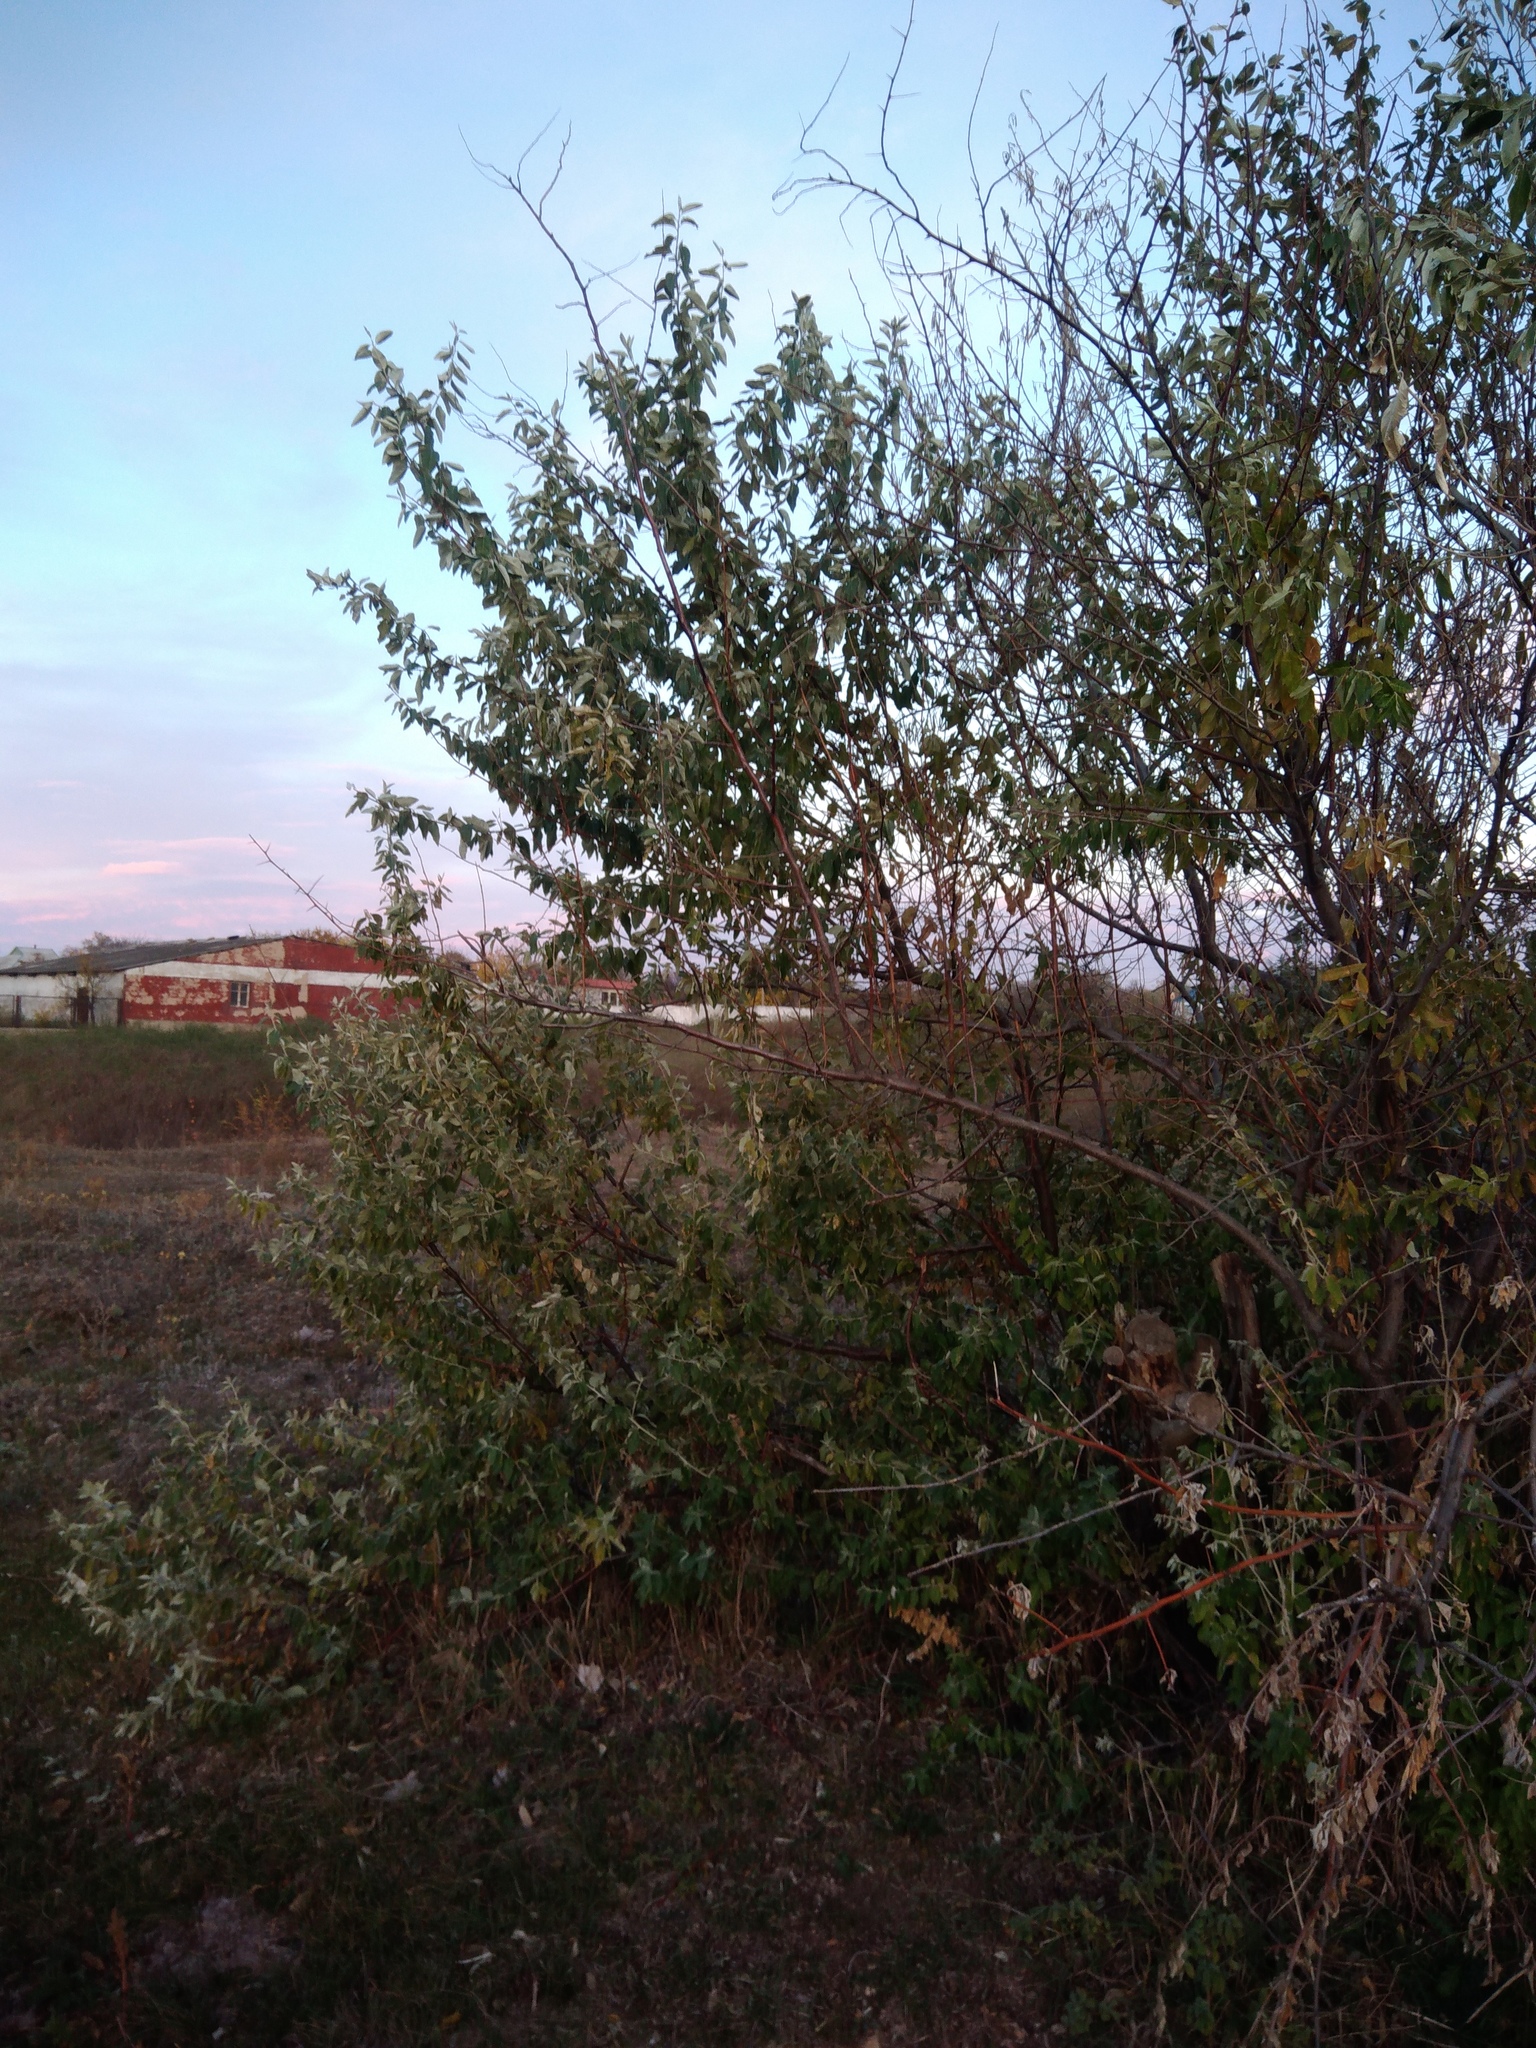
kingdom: Plantae
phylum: Tracheophyta
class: Magnoliopsida
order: Rosales
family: Elaeagnaceae
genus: Elaeagnus
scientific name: Elaeagnus angustifolia
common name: Russian olive
